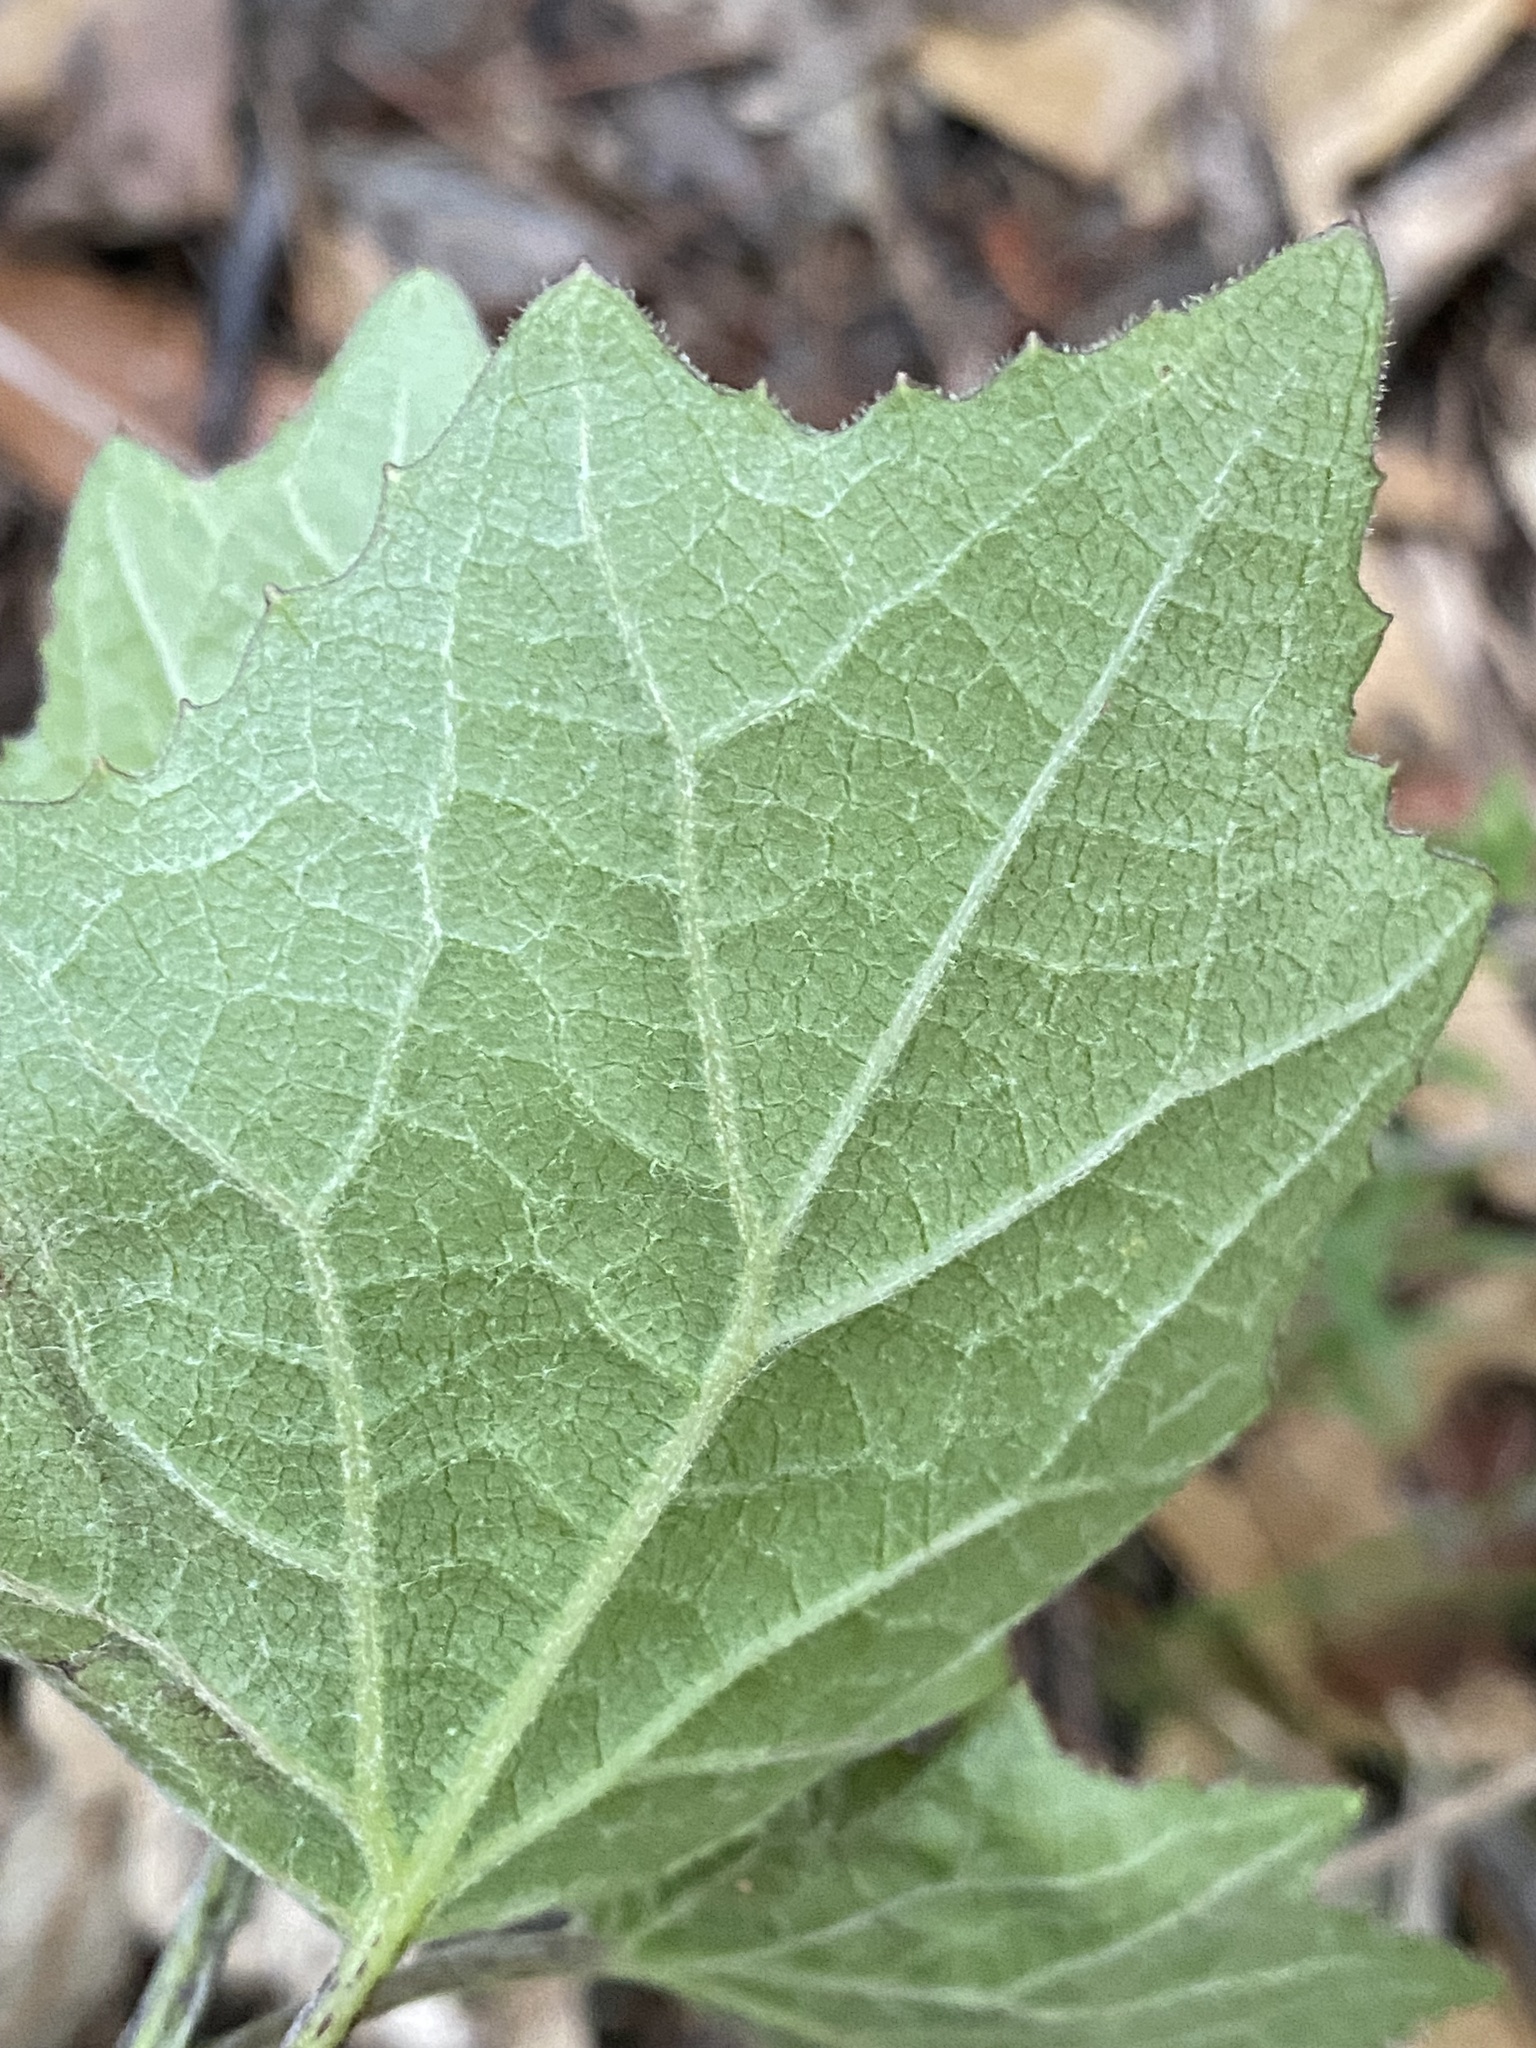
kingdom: Plantae
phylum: Tracheophyta
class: Magnoliopsida
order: Asterales
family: Asteraceae
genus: Roldana
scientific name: Roldana hartwegii
